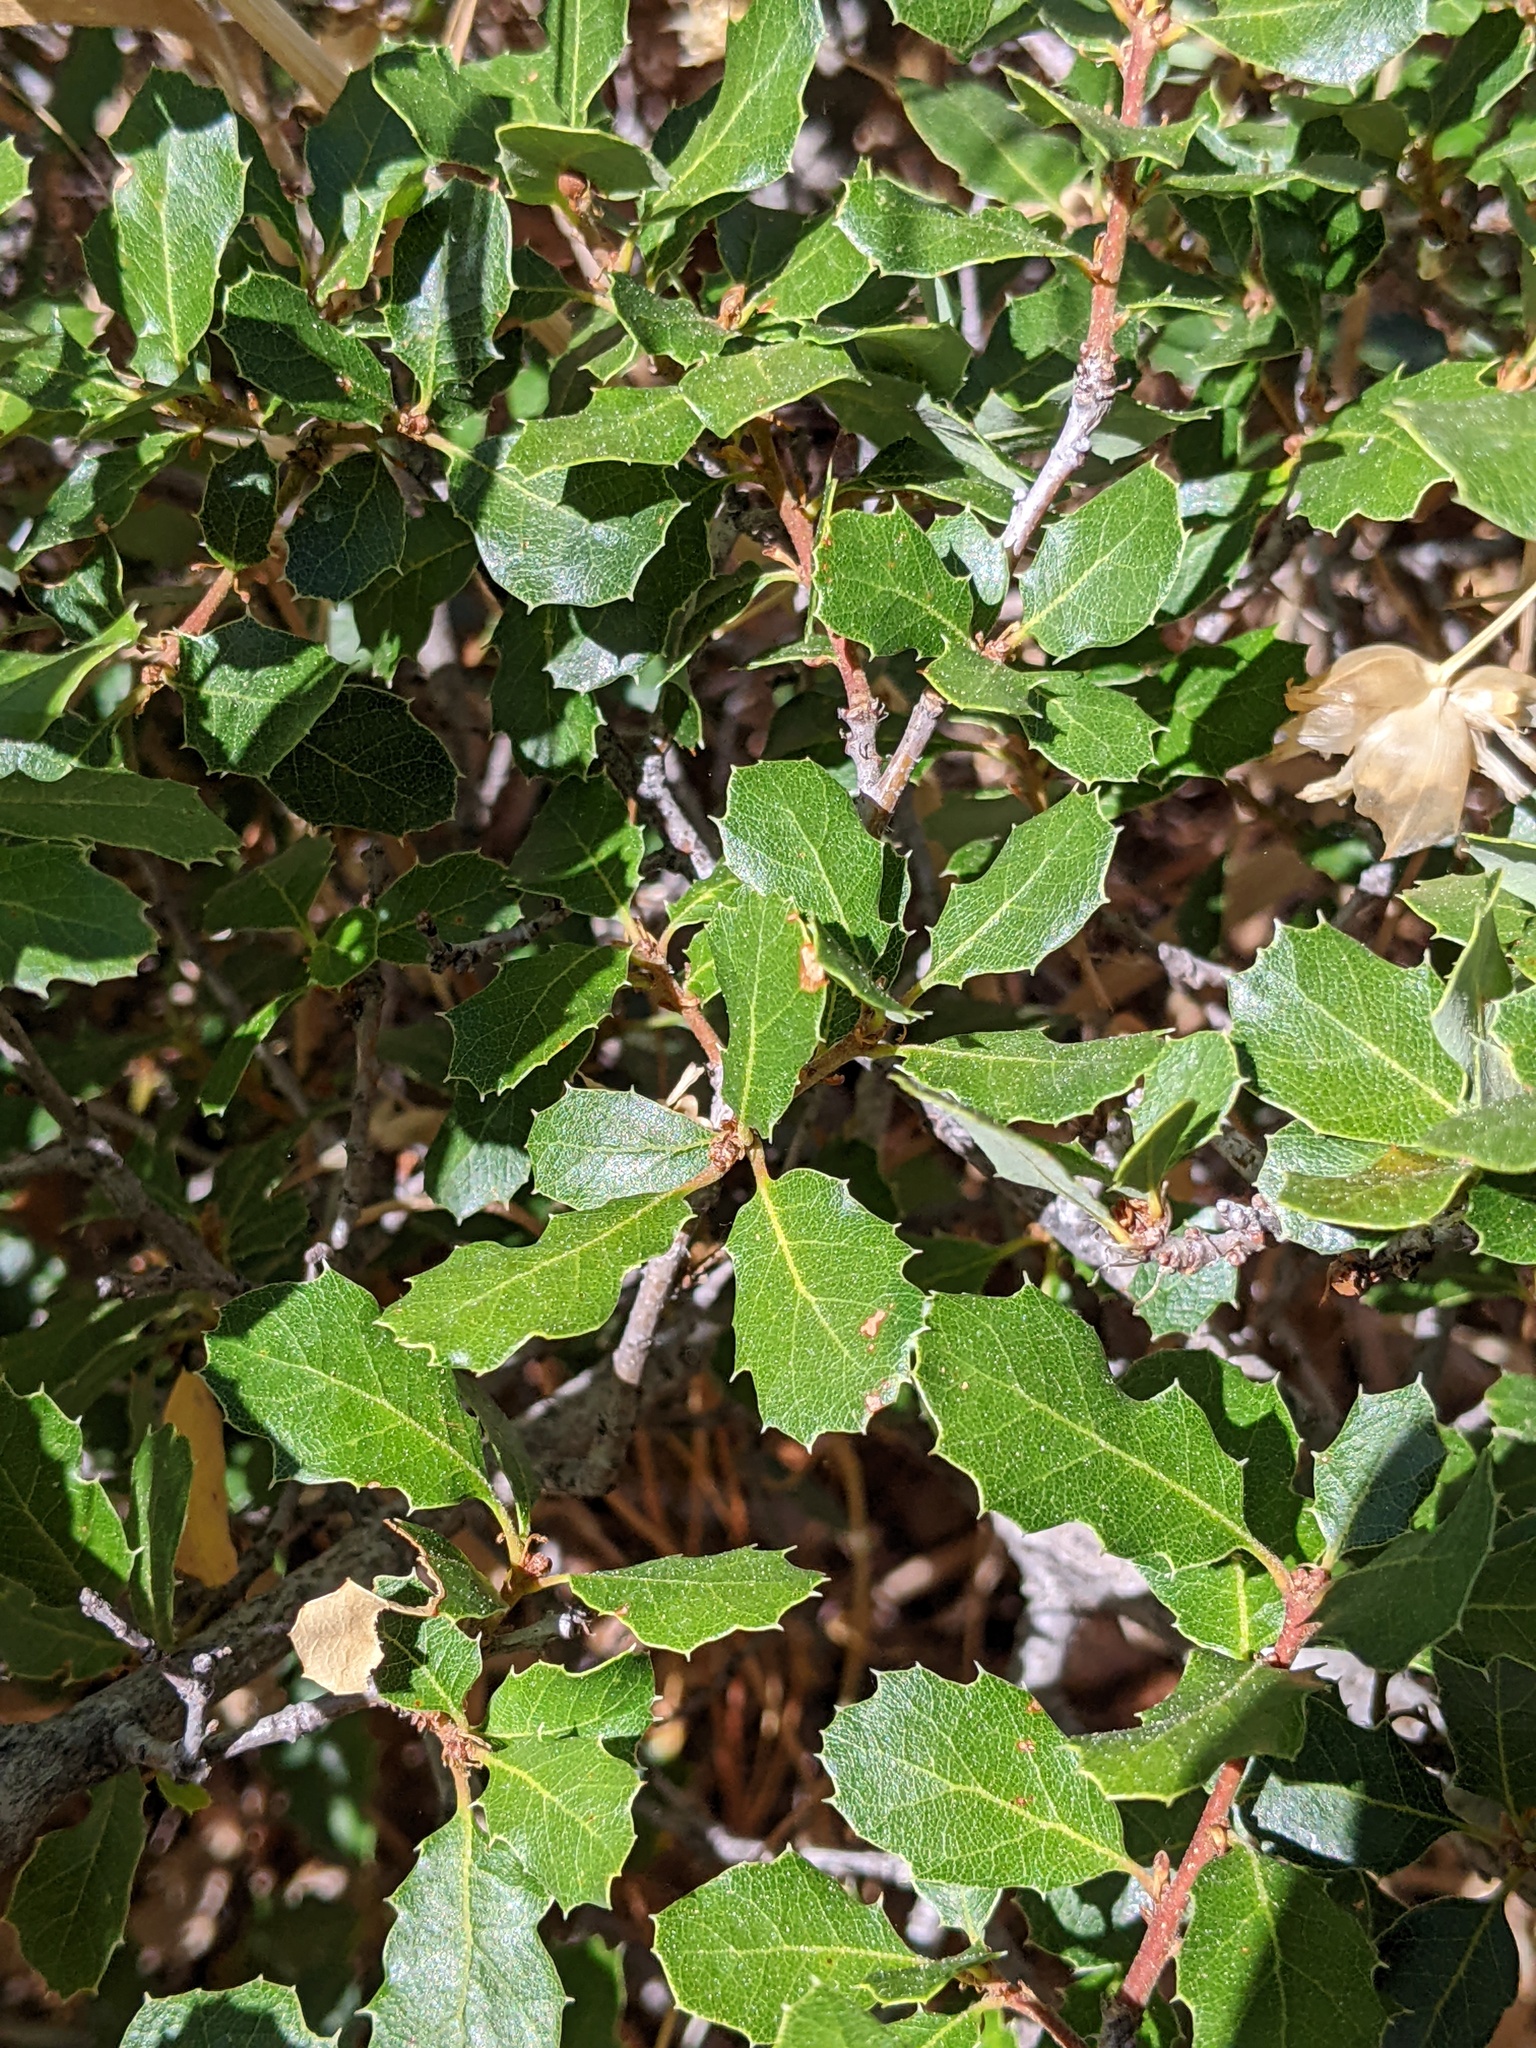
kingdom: Plantae
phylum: Tracheophyta
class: Magnoliopsida
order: Fagales
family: Fagaceae
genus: Quercus
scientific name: Quercus berberidifolia
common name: California scrub oak
